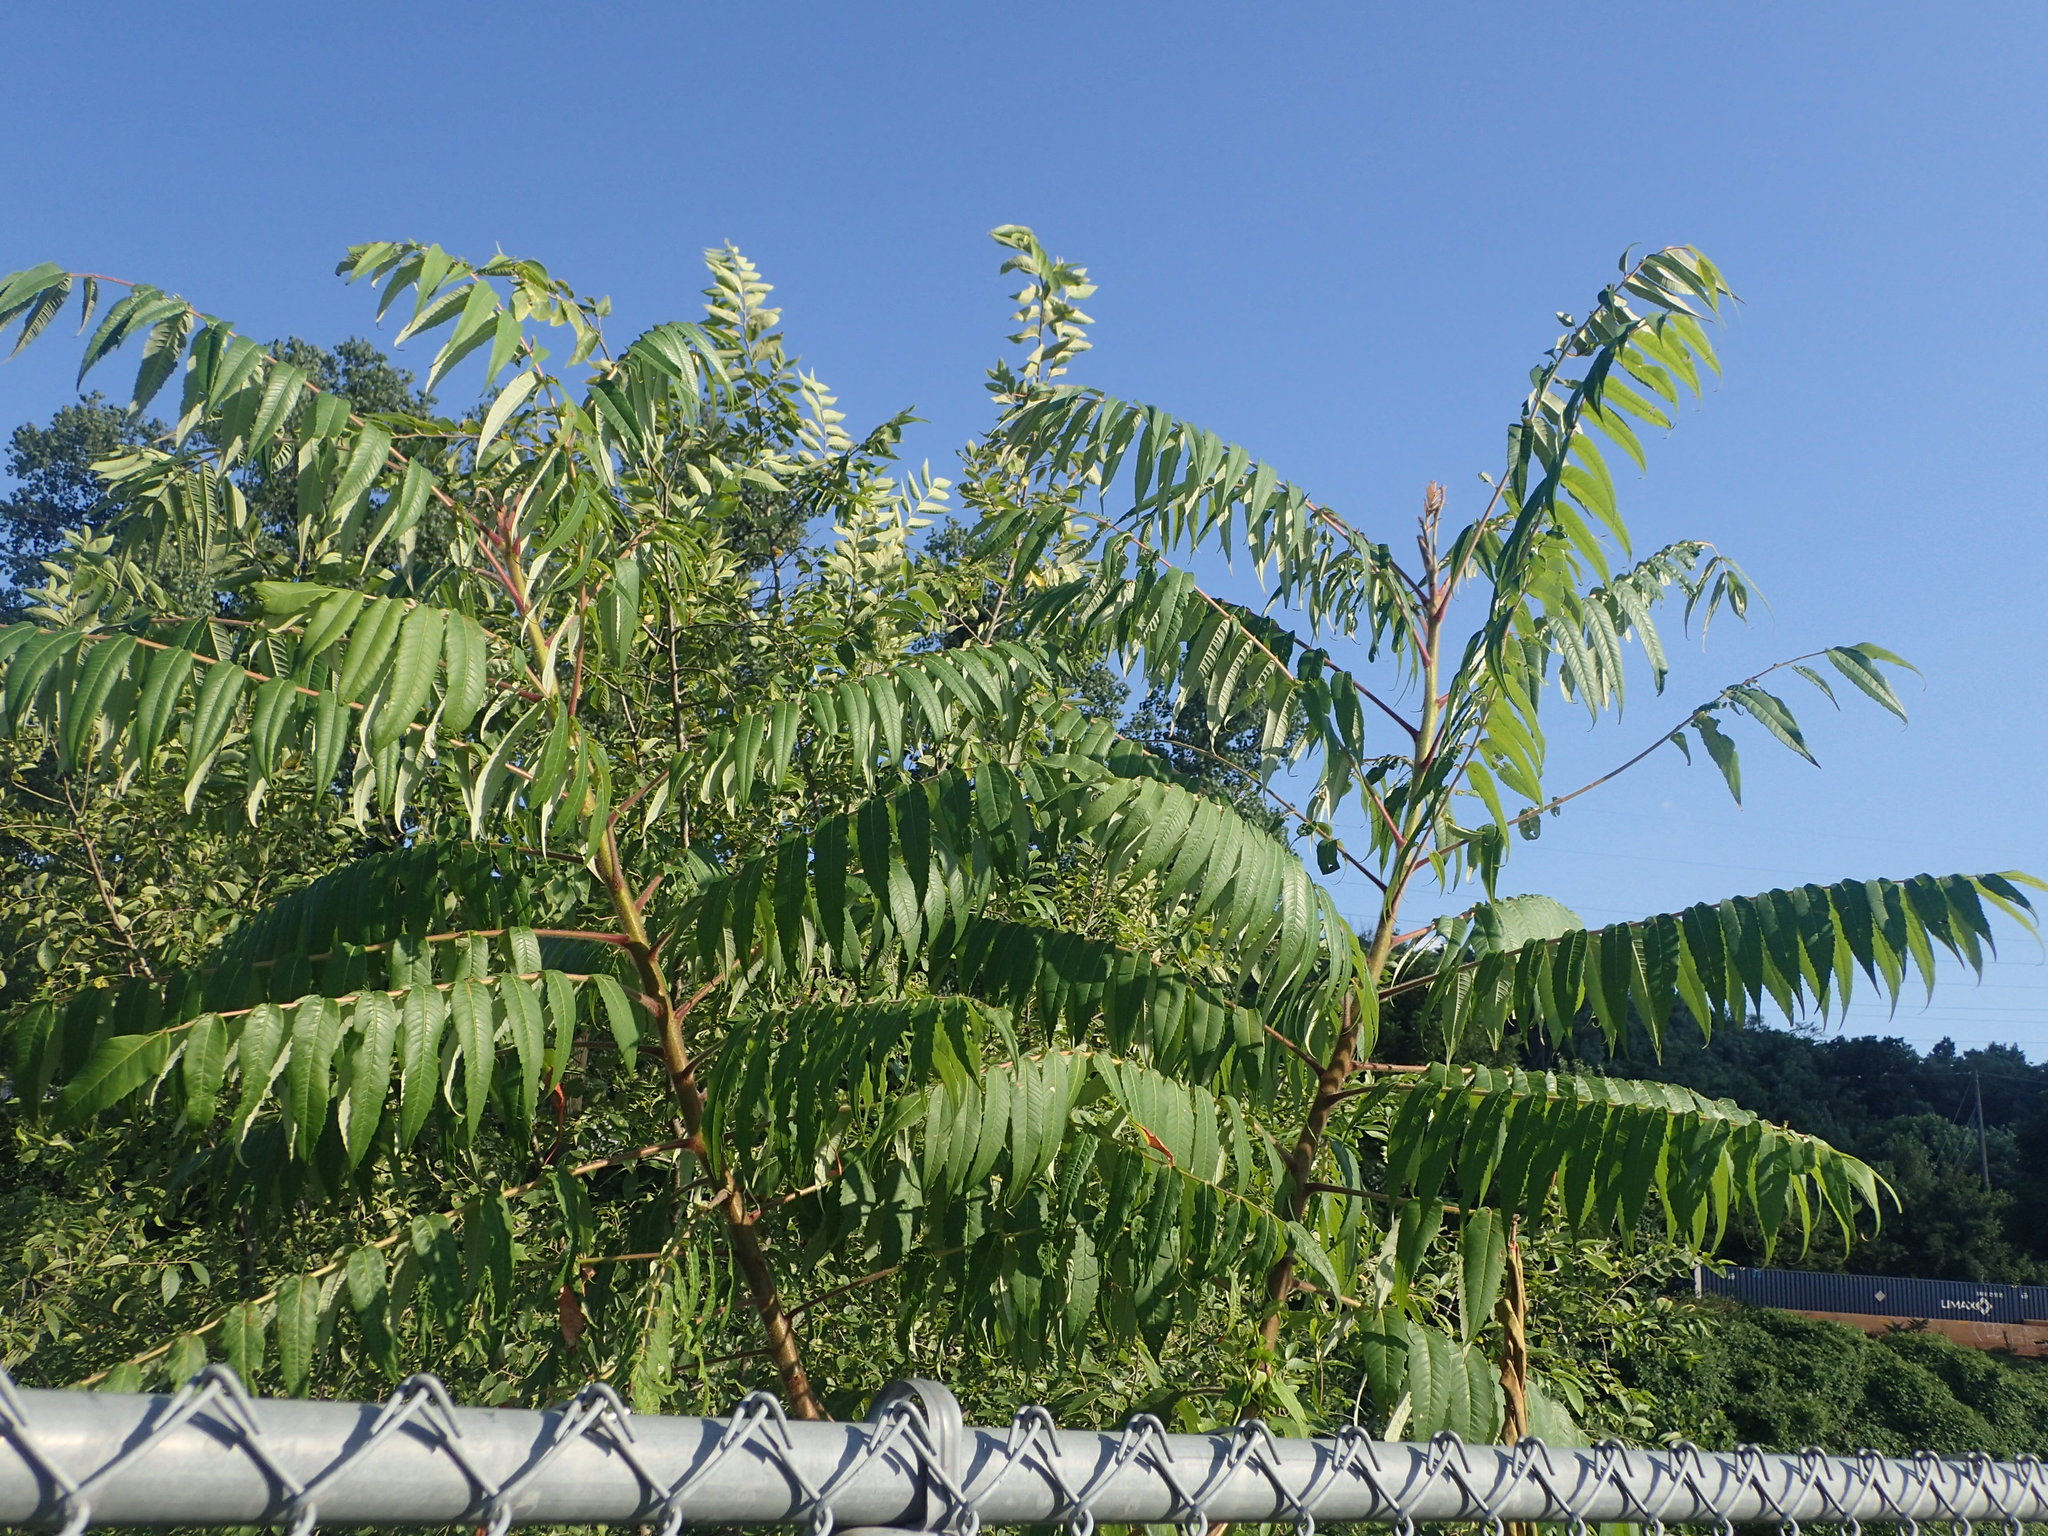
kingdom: Plantae
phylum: Tracheophyta
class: Magnoliopsida
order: Sapindales
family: Anacardiaceae
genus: Rhus
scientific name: Rhus typhina
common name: Staghorn sumac
